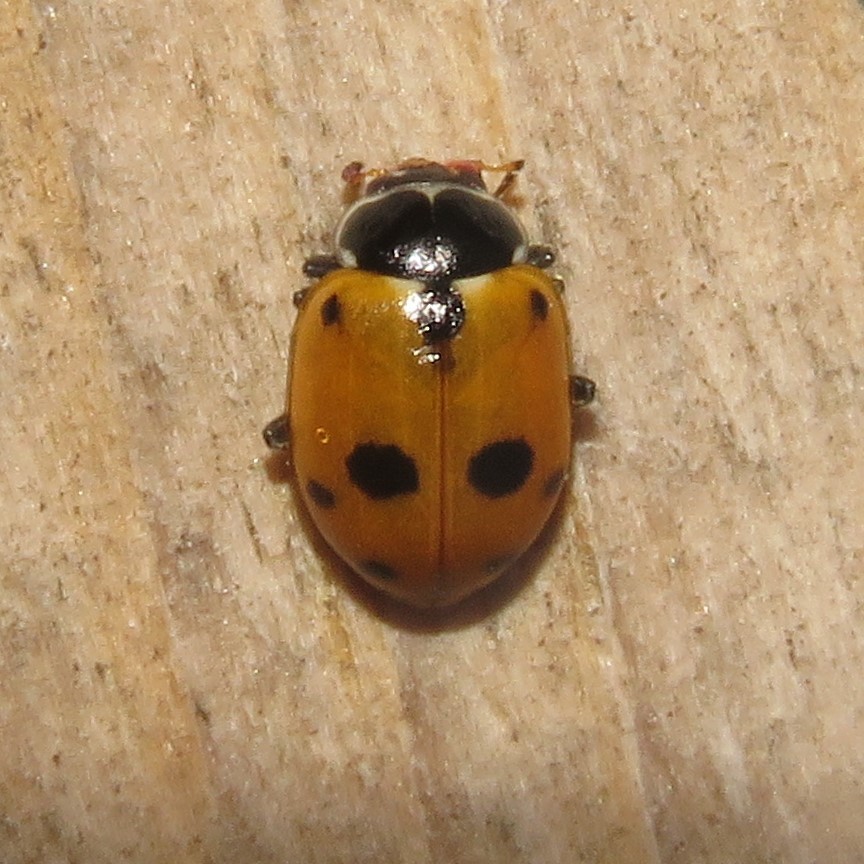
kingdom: Animalia
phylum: Arthropoda
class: Insecta
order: Coleoptera
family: Coccinellidae
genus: Hippodamia
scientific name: Hippodamia variegata
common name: Ladybird beetle
